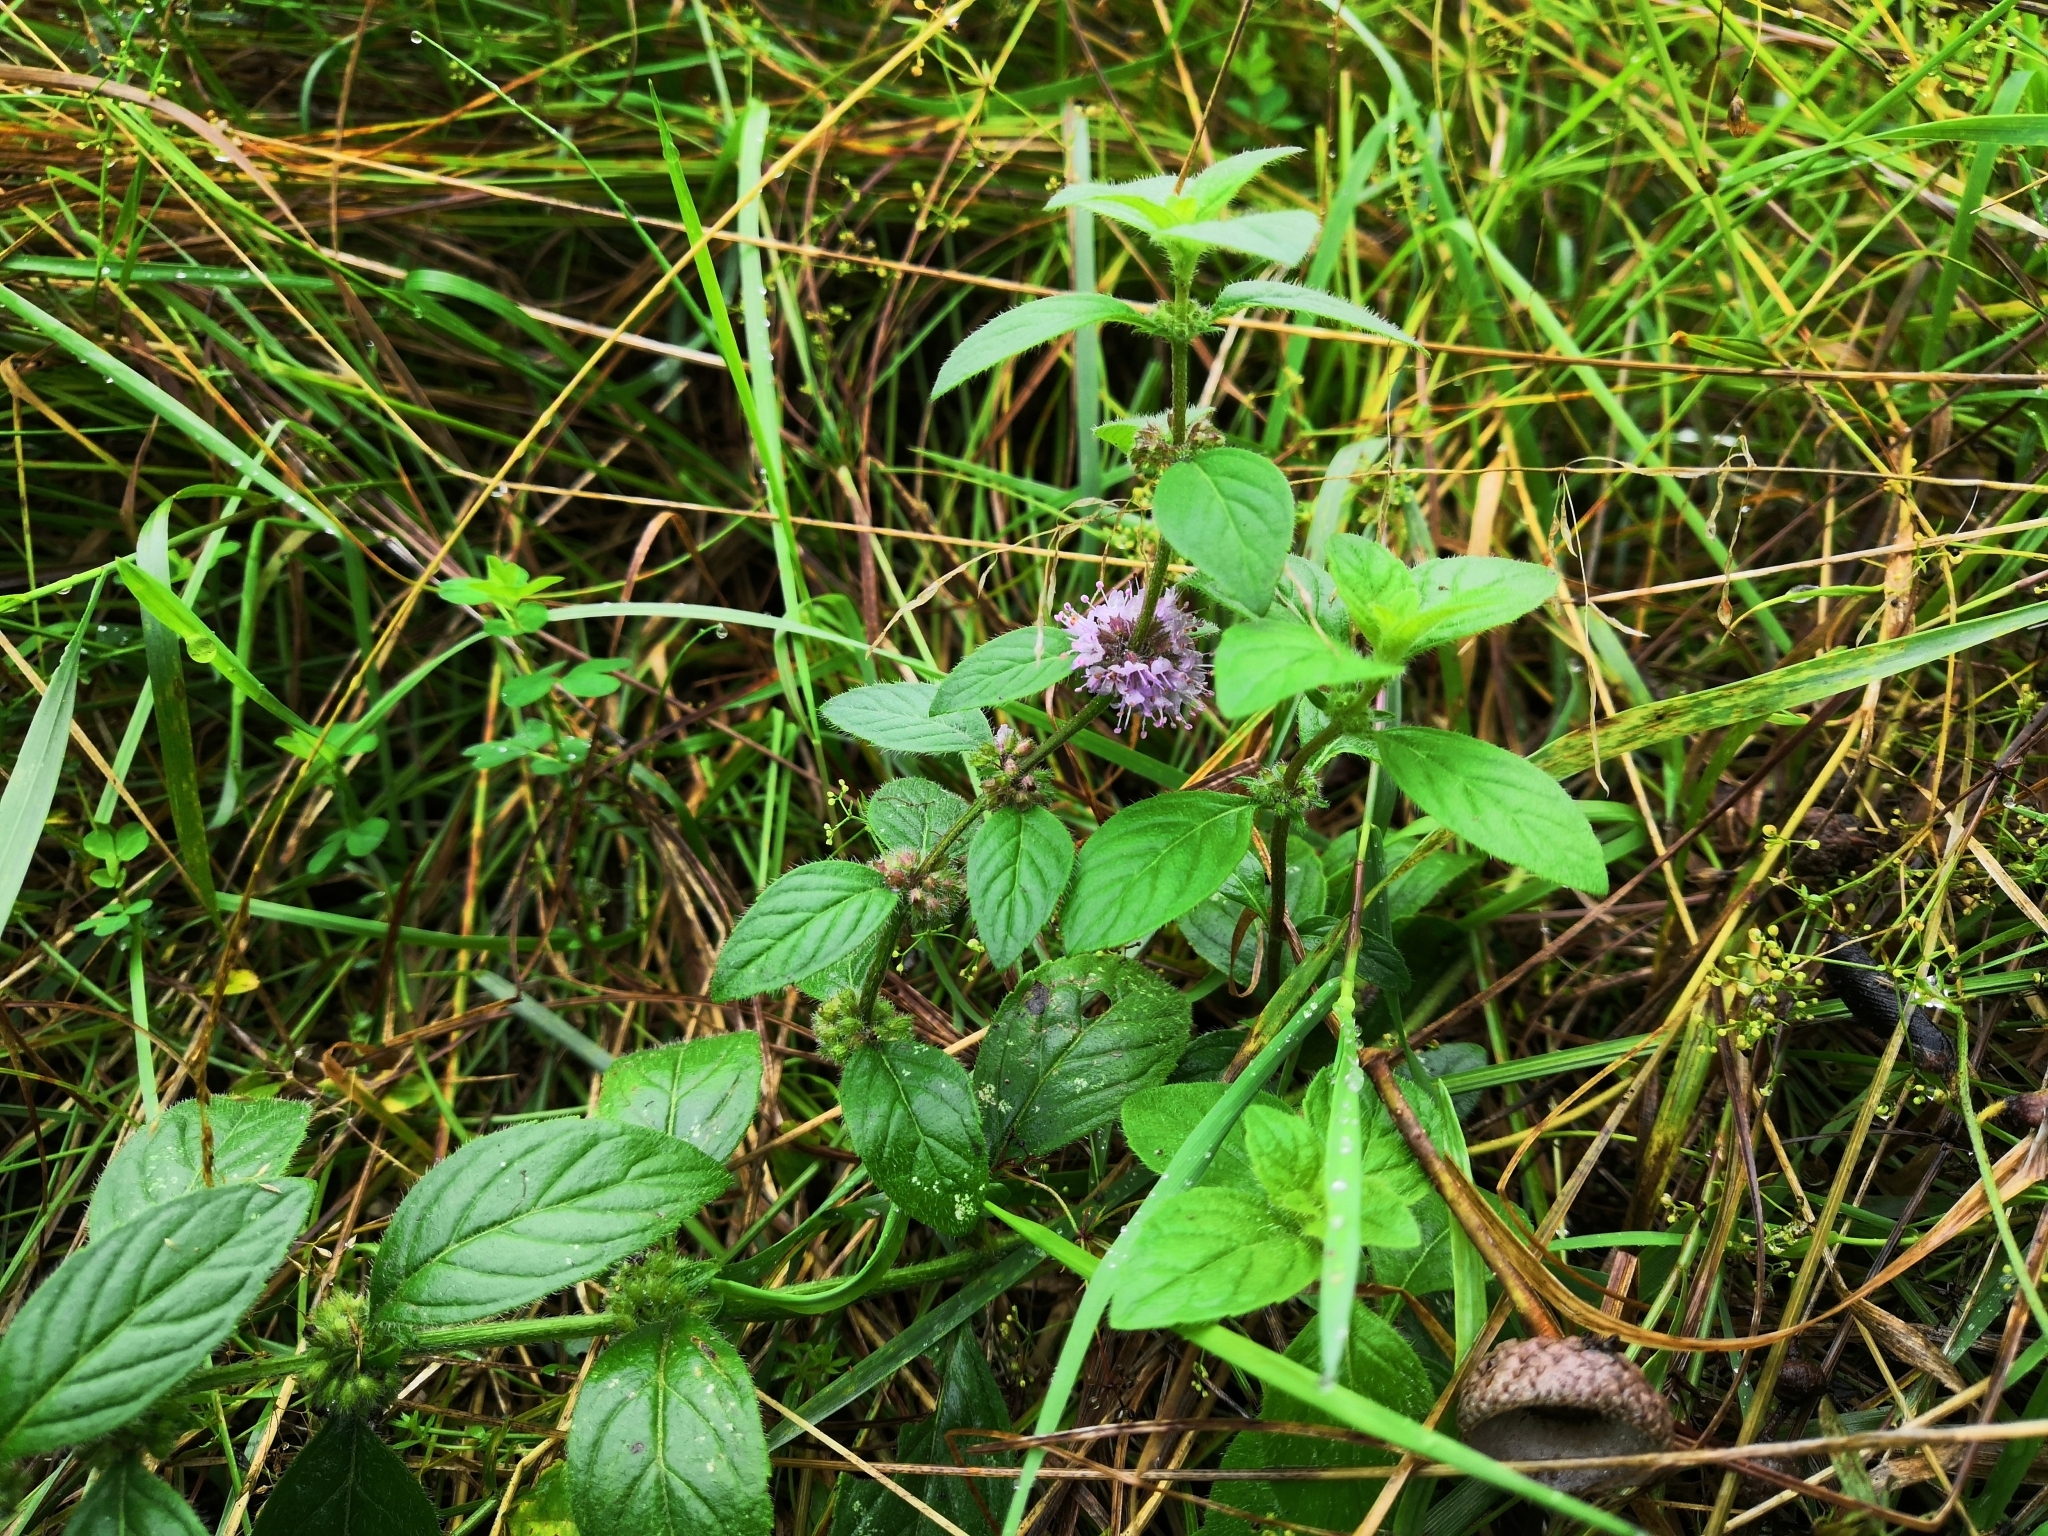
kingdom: Plantae
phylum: Tracheophyta
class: Magnoliopsida
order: Lamiales
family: Lamiaceae
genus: Mentha
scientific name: Mentha arvensis
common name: Corn mint
